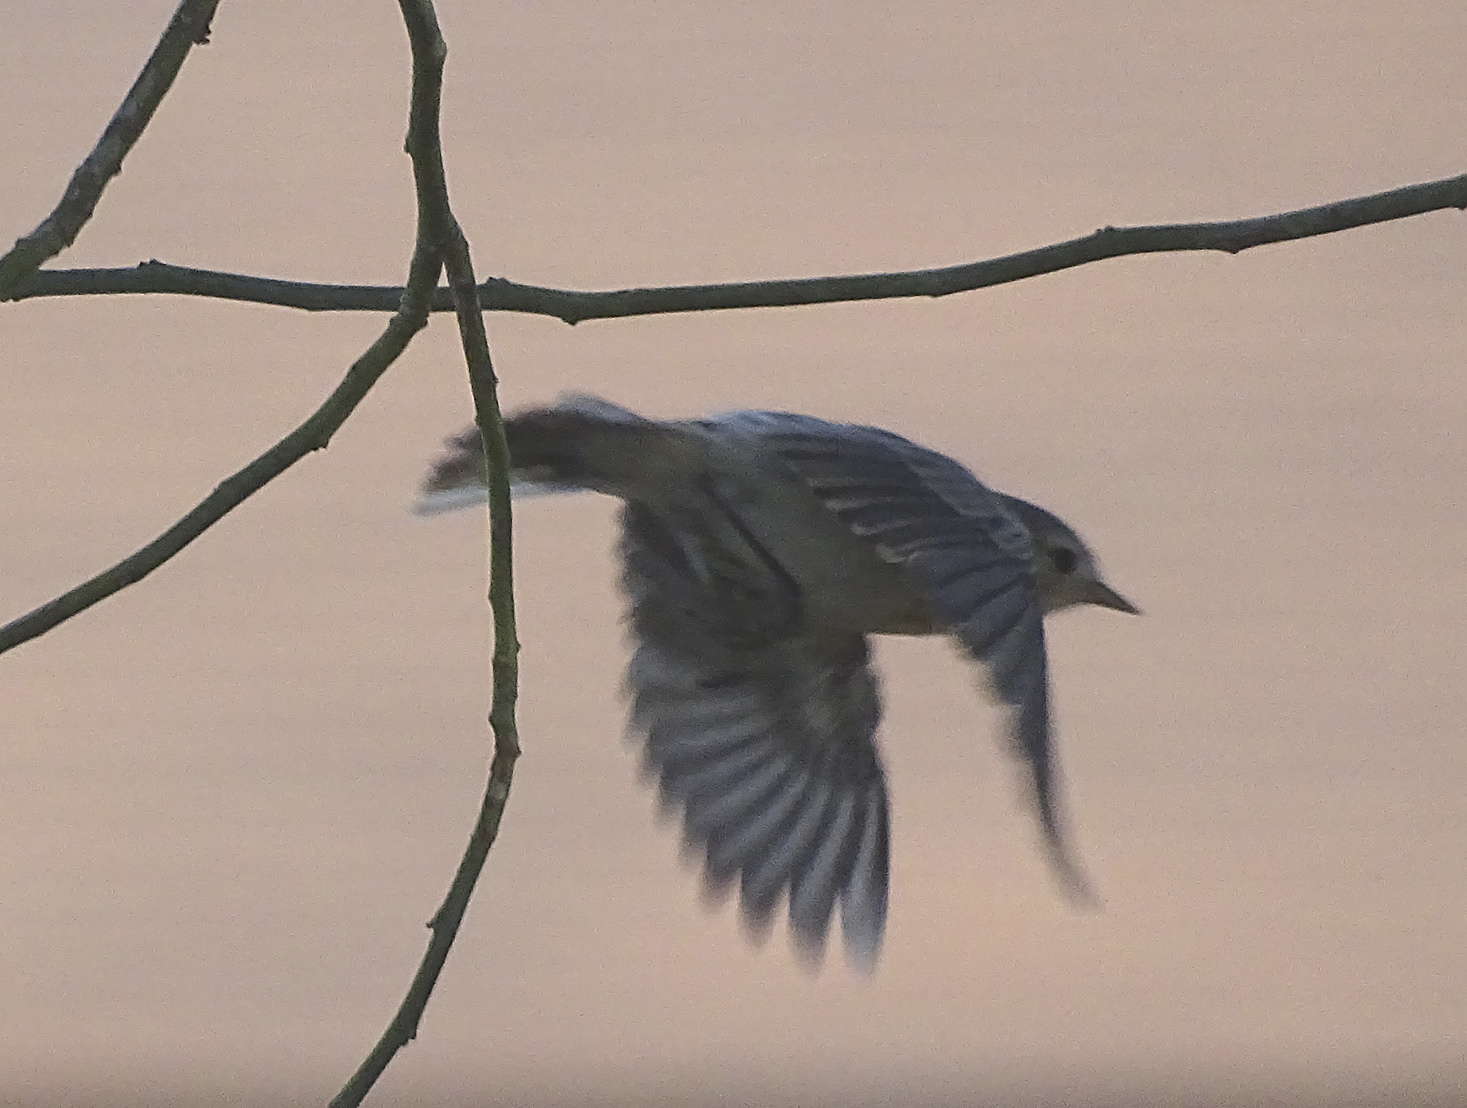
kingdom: Animalia
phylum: Chordata
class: Aves
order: Passeriformes
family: Parulidae
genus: Leiothlypis
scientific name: Leiothlypis luciae
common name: Lucy's warbler
